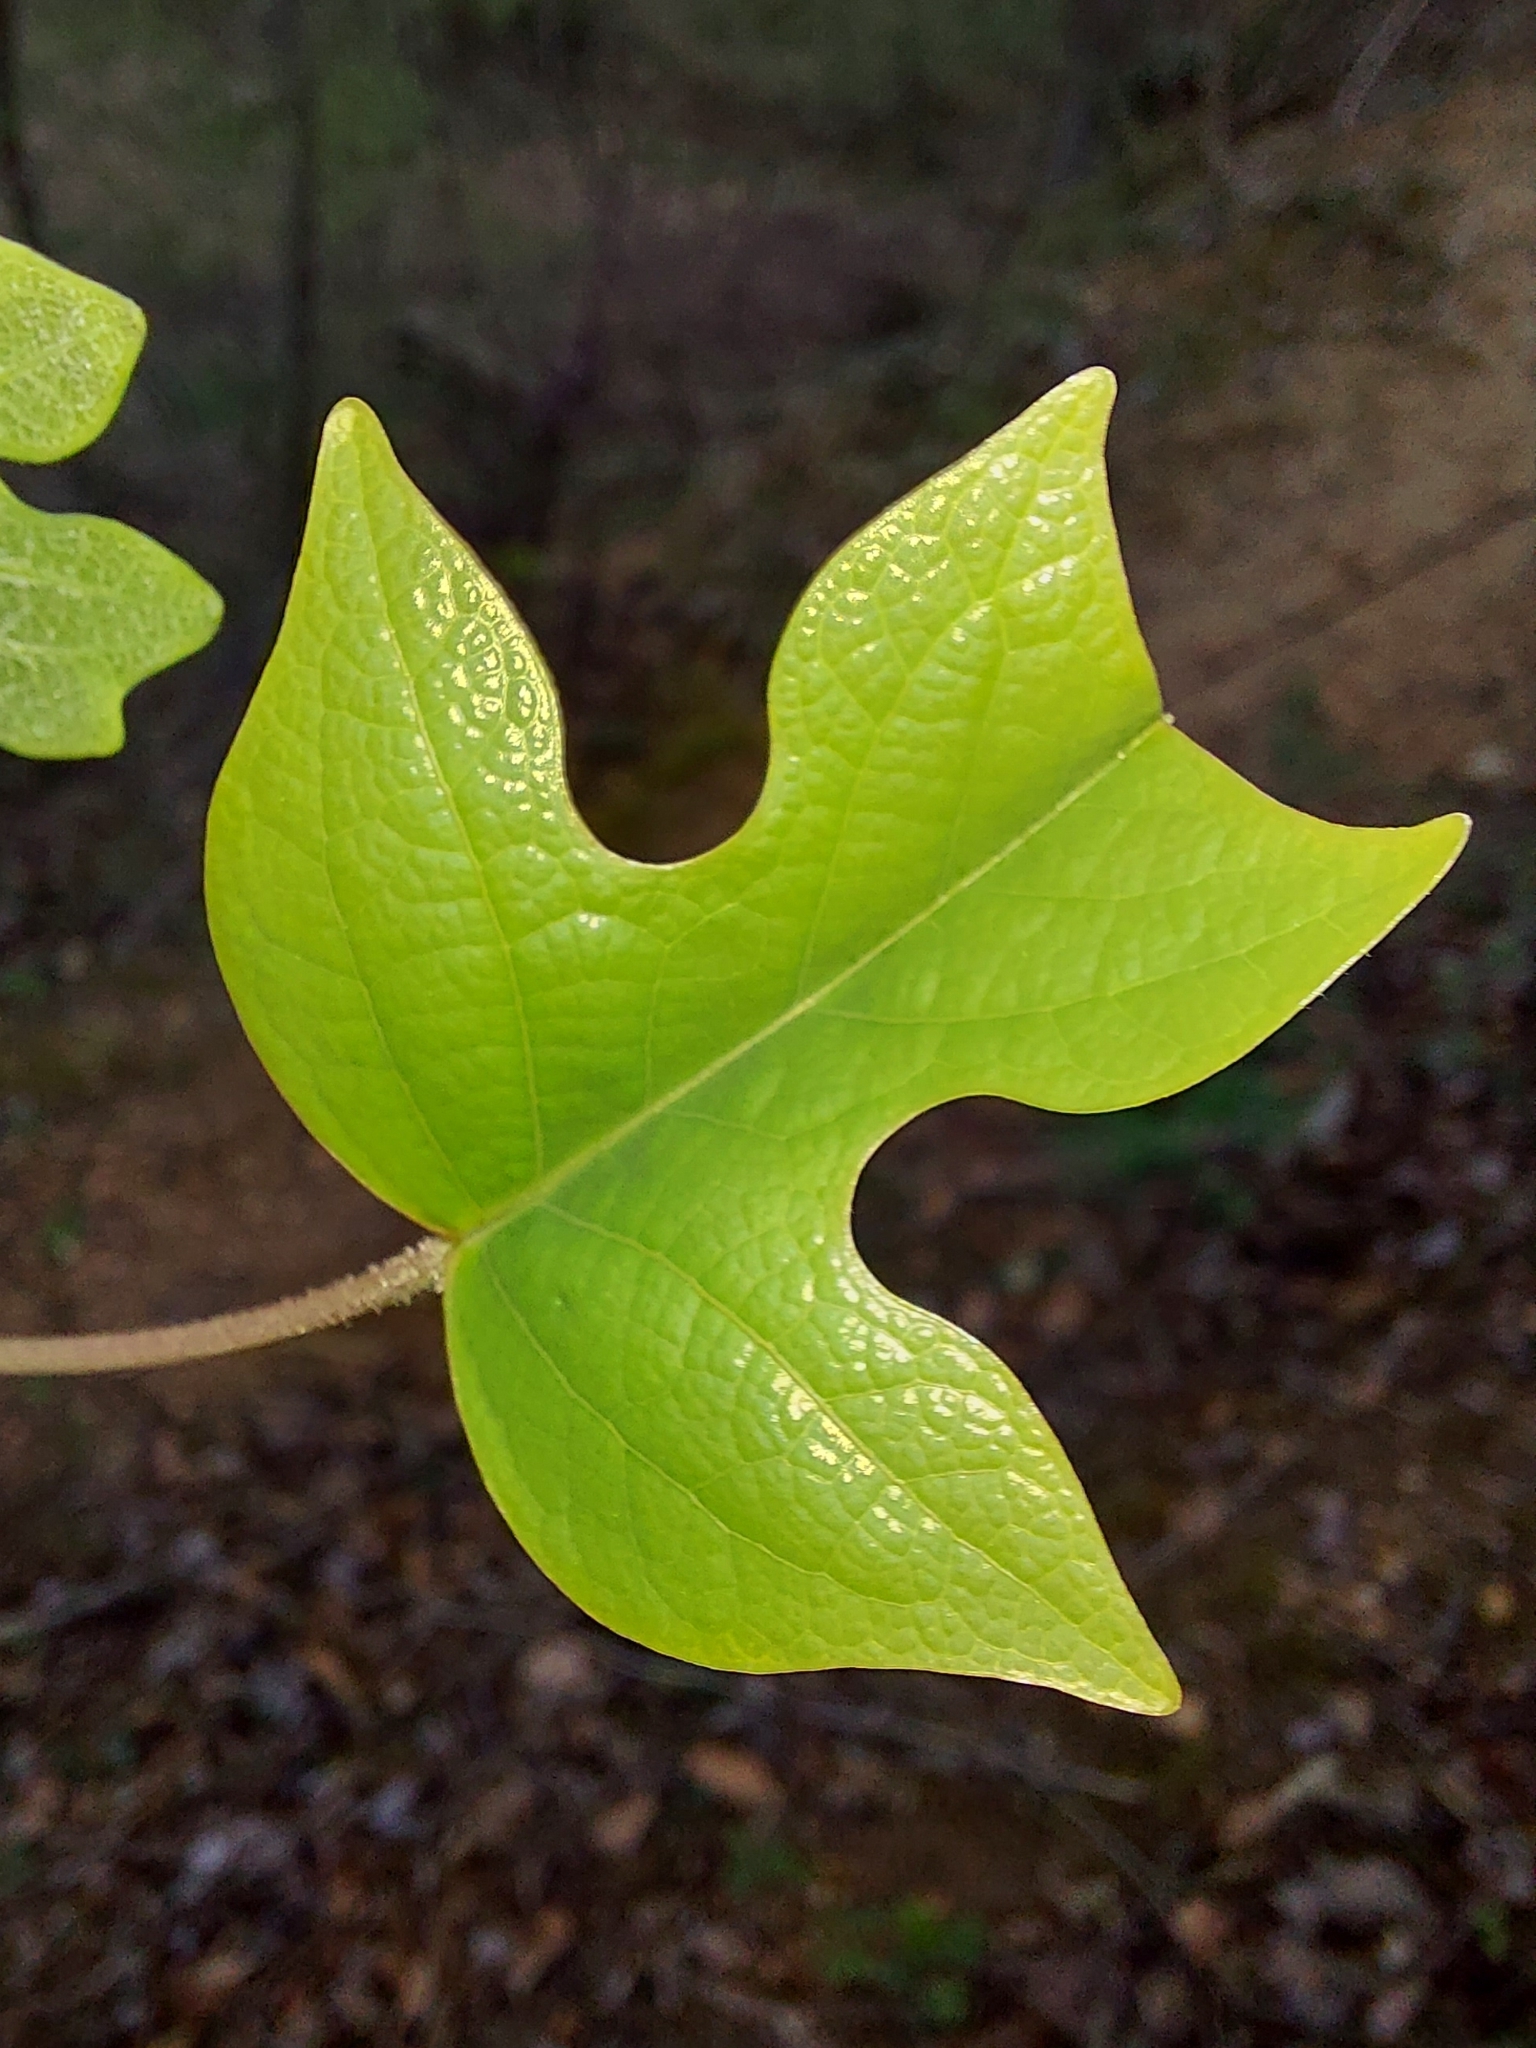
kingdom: Plantae
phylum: Tracheophyta
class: Magnoliopsida
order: Magnoliales
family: Magnoliaceae
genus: Liriodendron
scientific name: Liriodendron tulipifera
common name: Tulip tree
